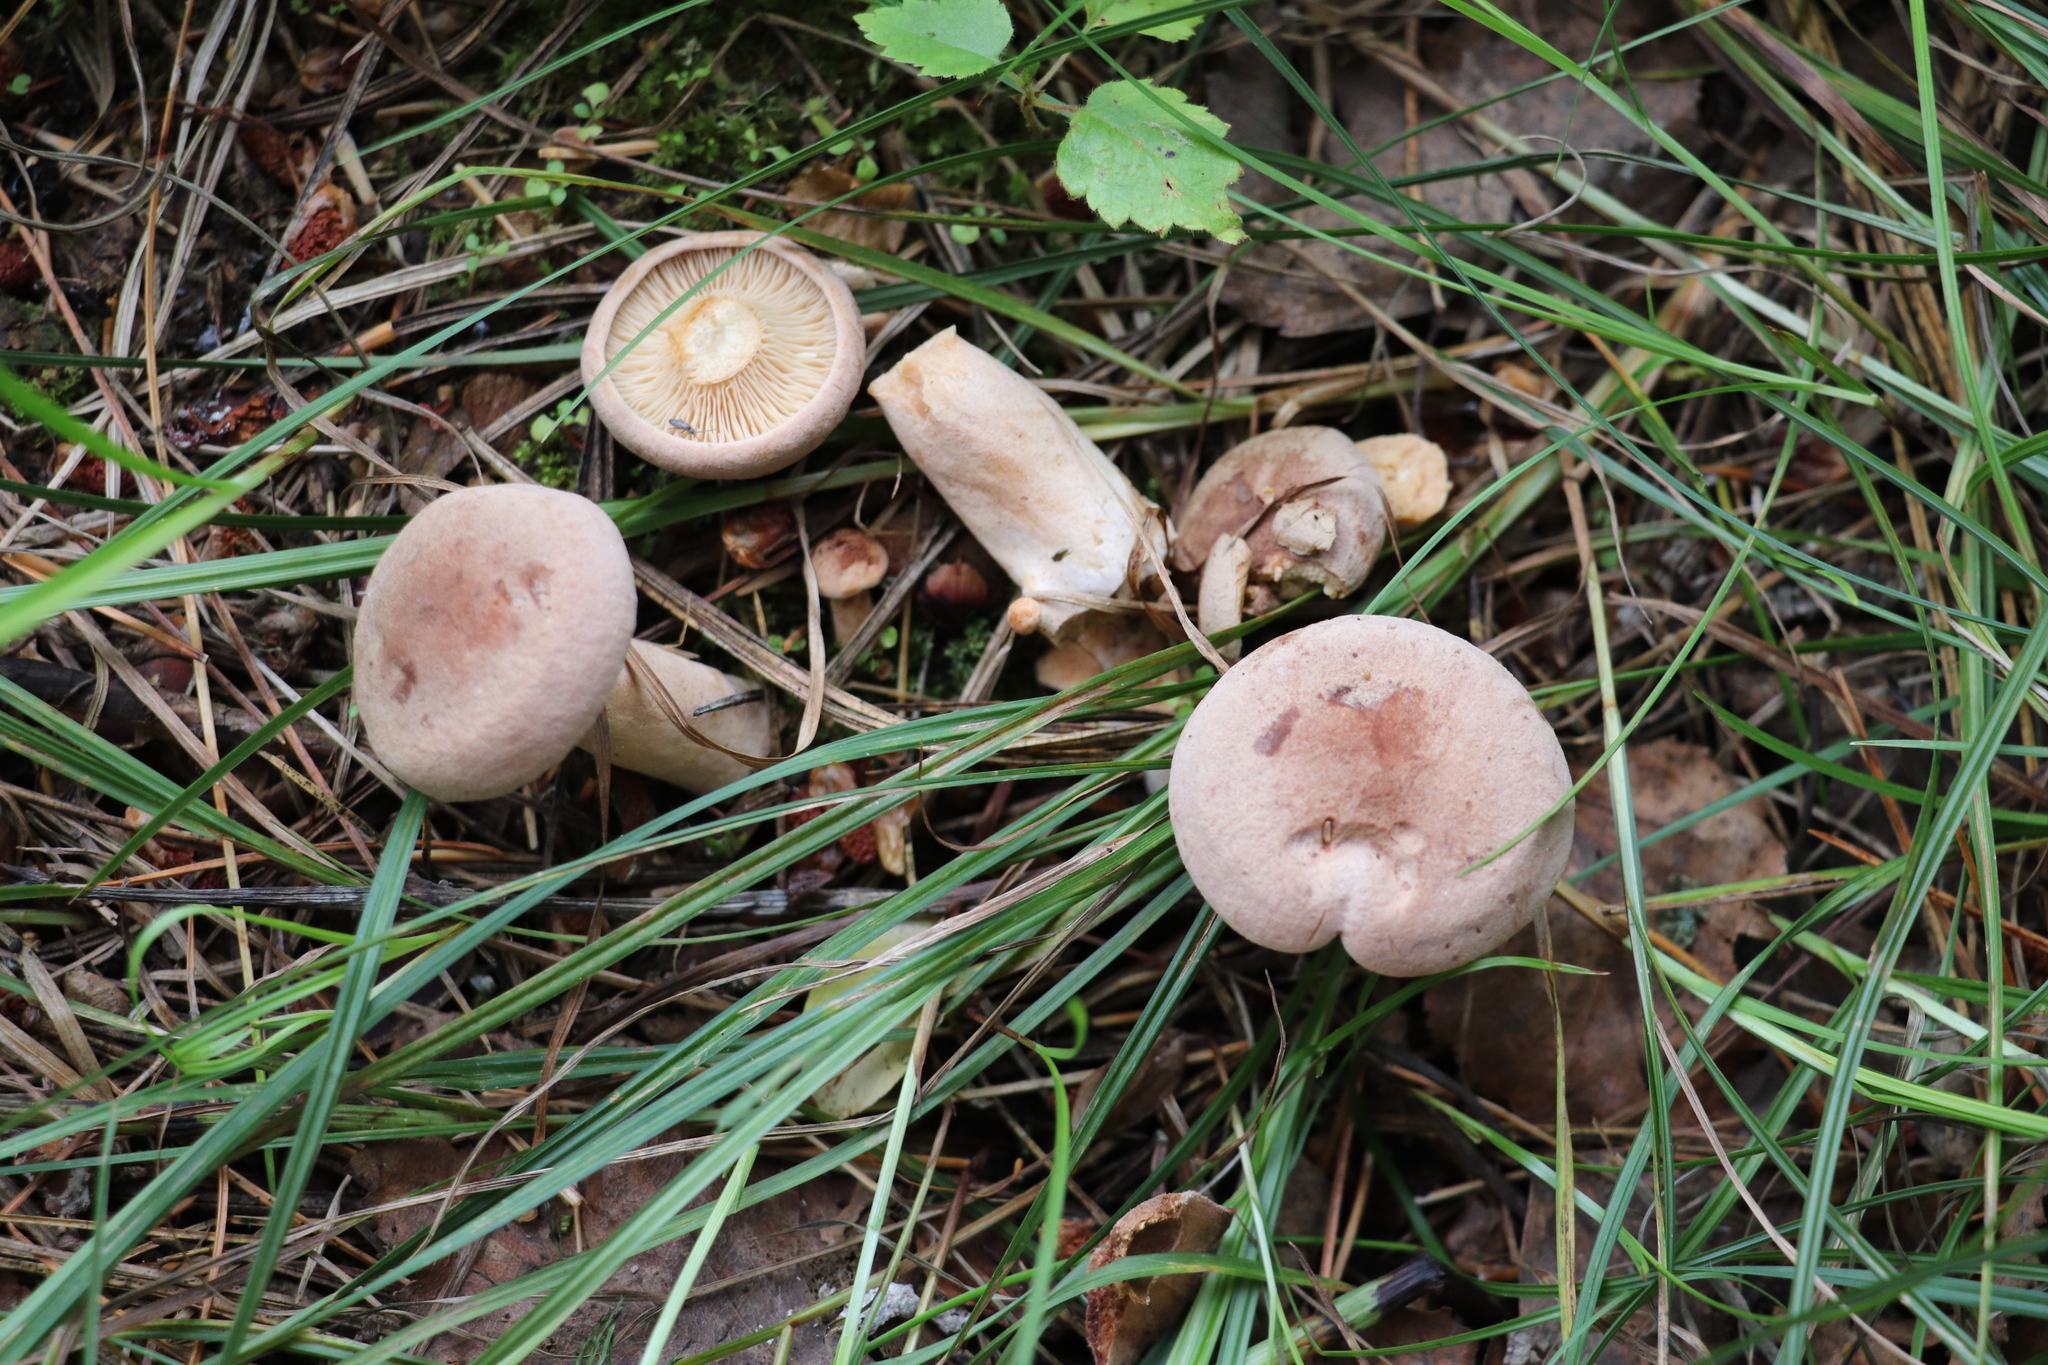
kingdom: Fungi
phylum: Basidiomycota
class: Agaricomycetes
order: Russulales
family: Russulaceae
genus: Lactarius
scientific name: Lactarius helvus
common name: Fenugreek milkcap
